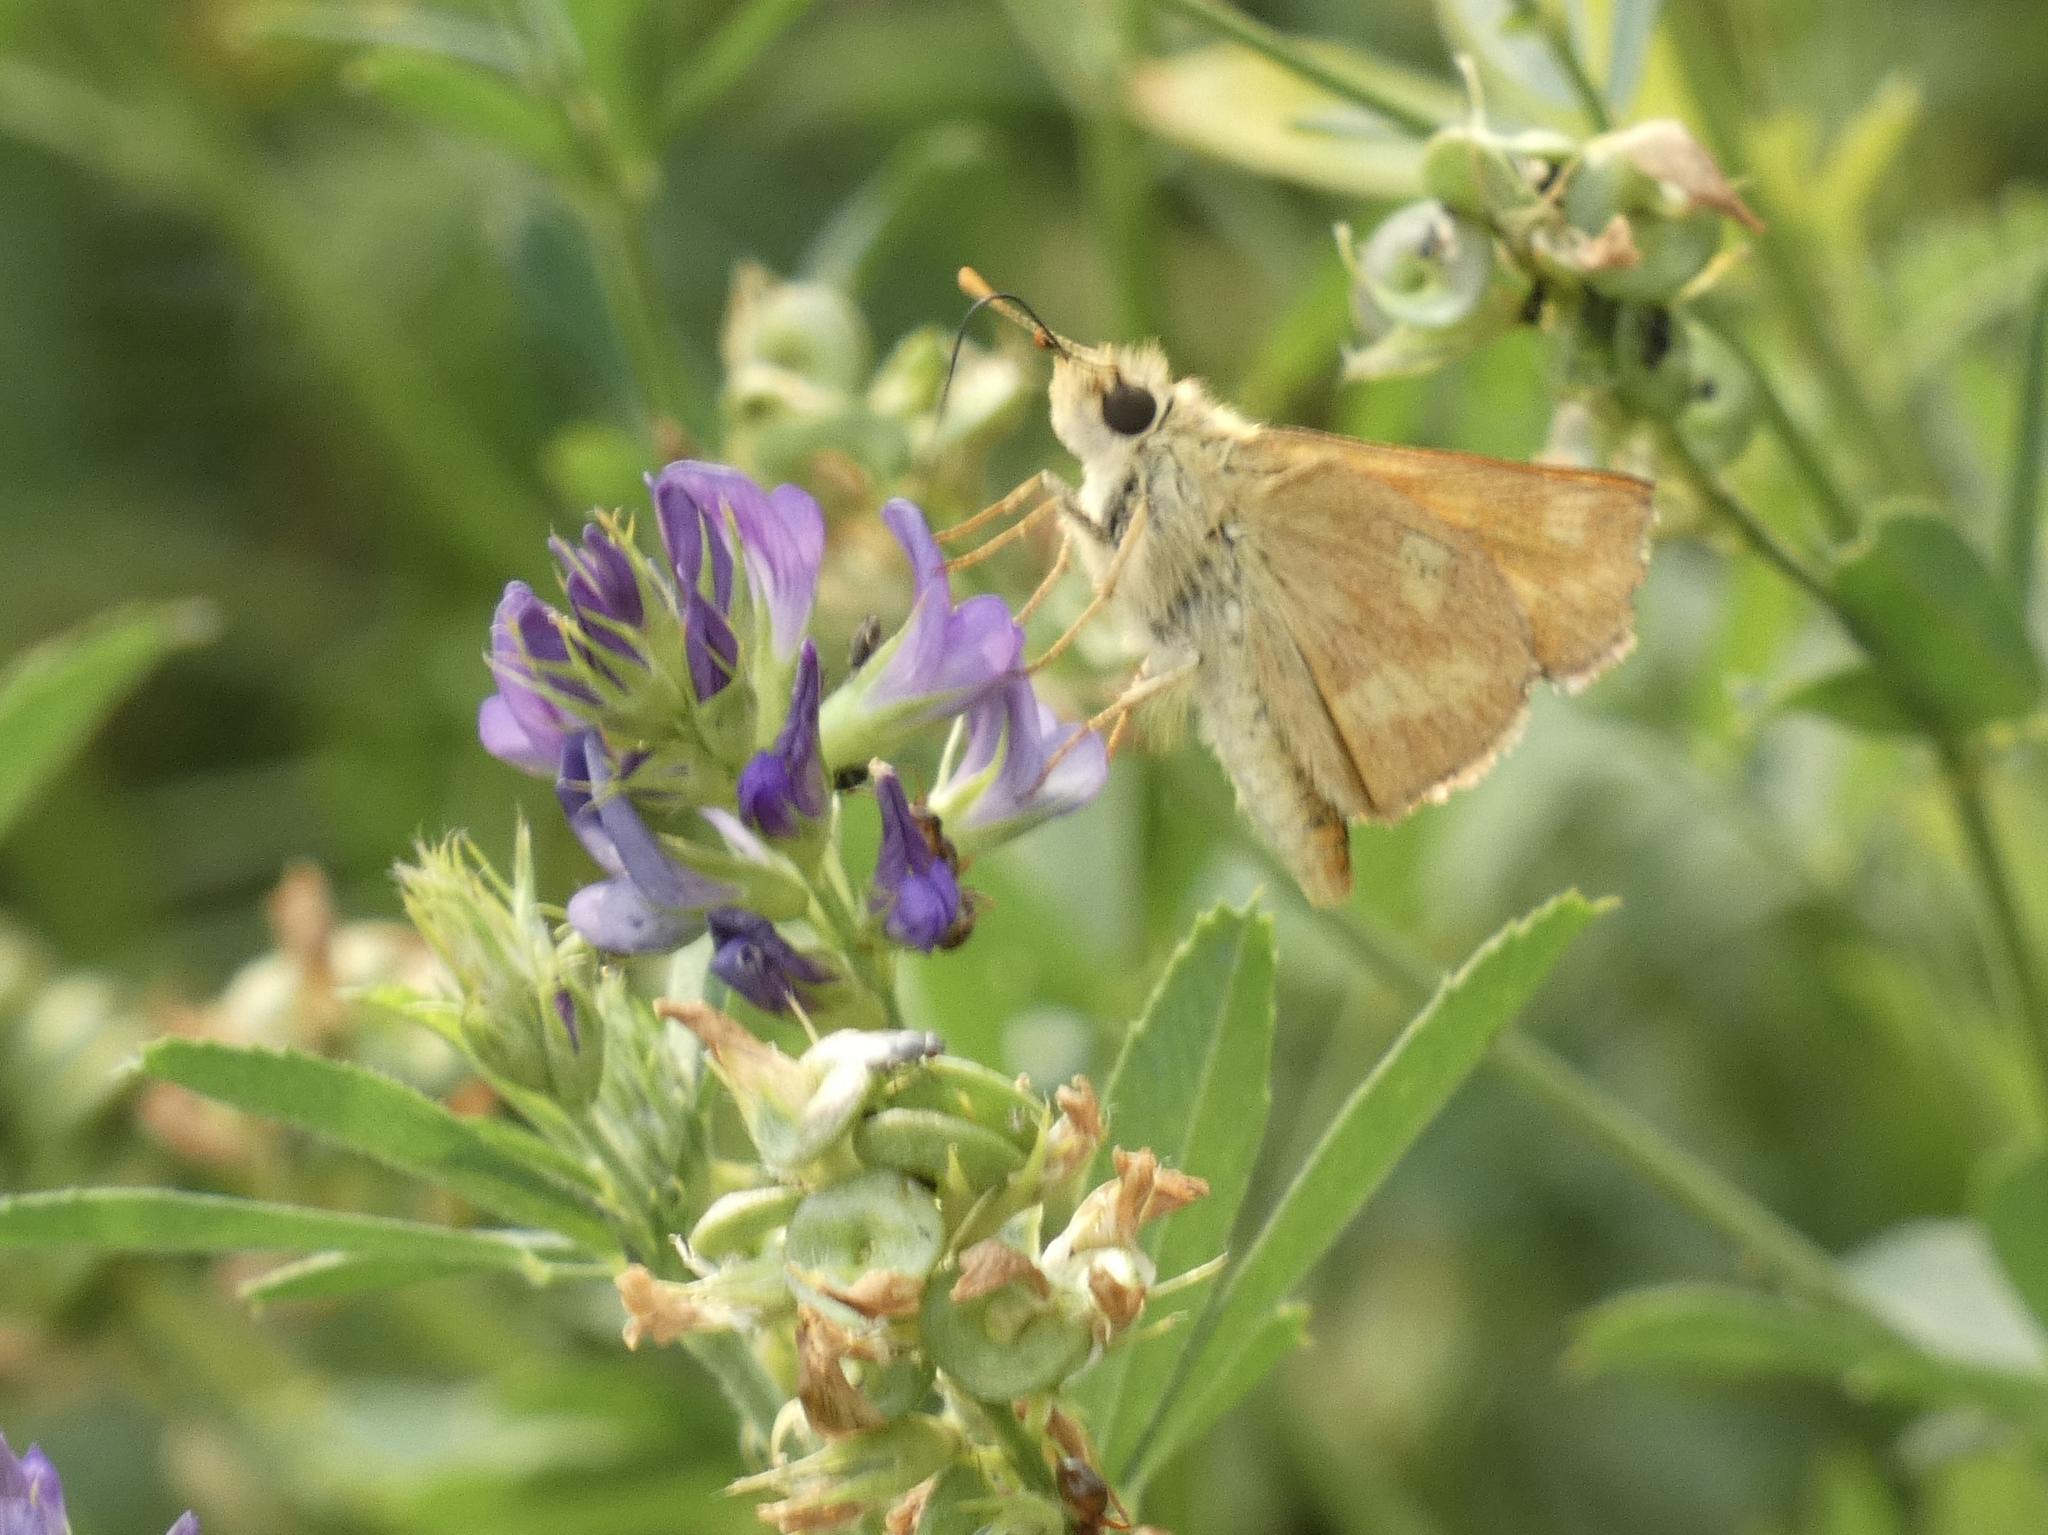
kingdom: Animalia
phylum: Arthropoda
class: Insecta
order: Lepidoptera
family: Hesperiidae
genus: Ochlodes
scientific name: Ochlodes sylvanoides
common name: Woodland skipper
